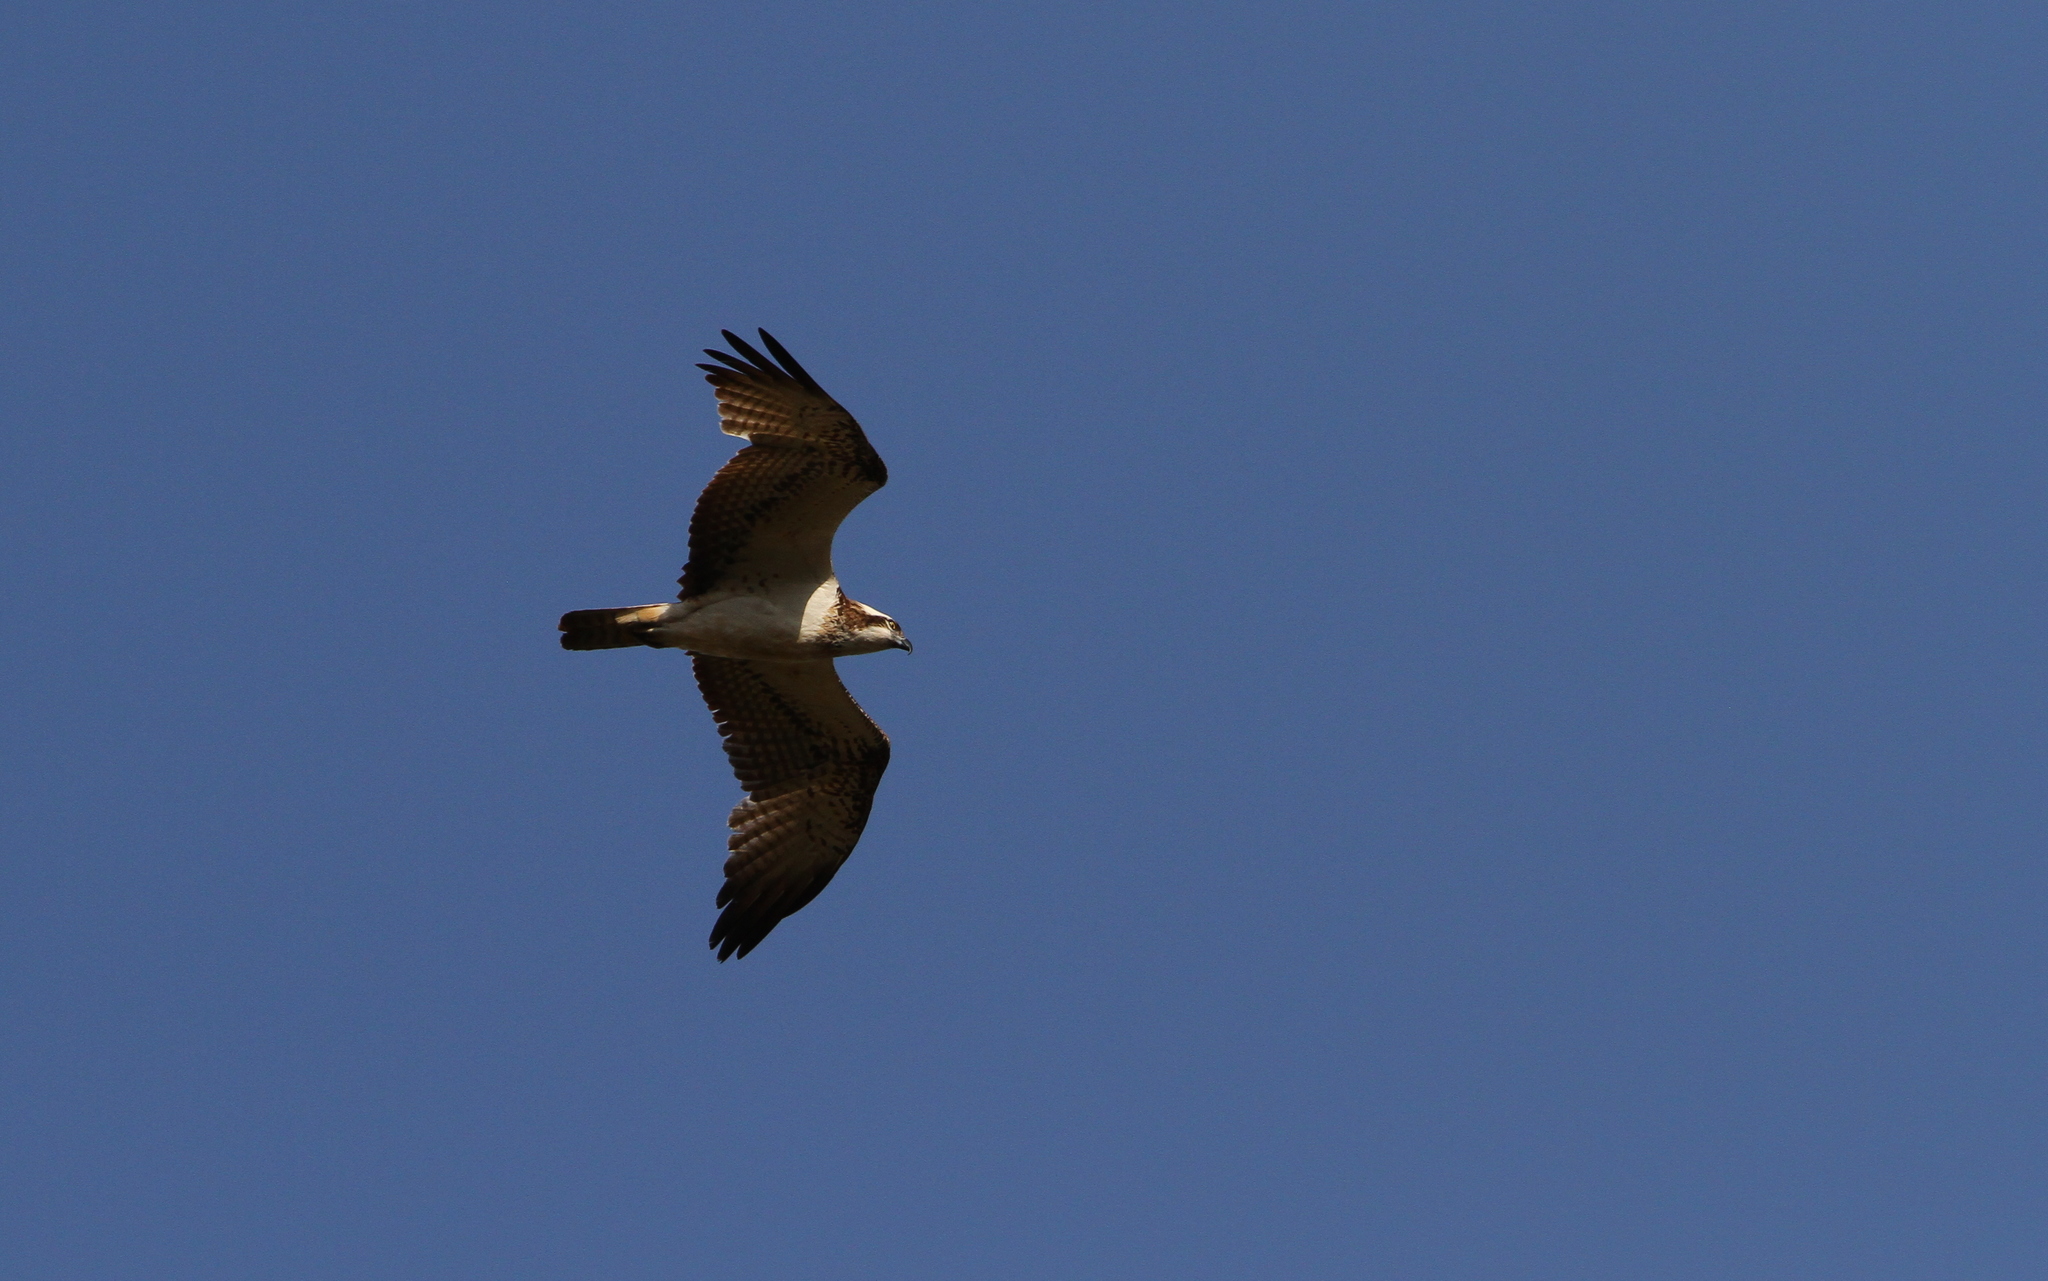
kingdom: Animalia
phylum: Chordata
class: Aves
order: Accipitriformes
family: Pandionidae
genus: Pandion
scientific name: Pandion haliaetus
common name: Osprey
